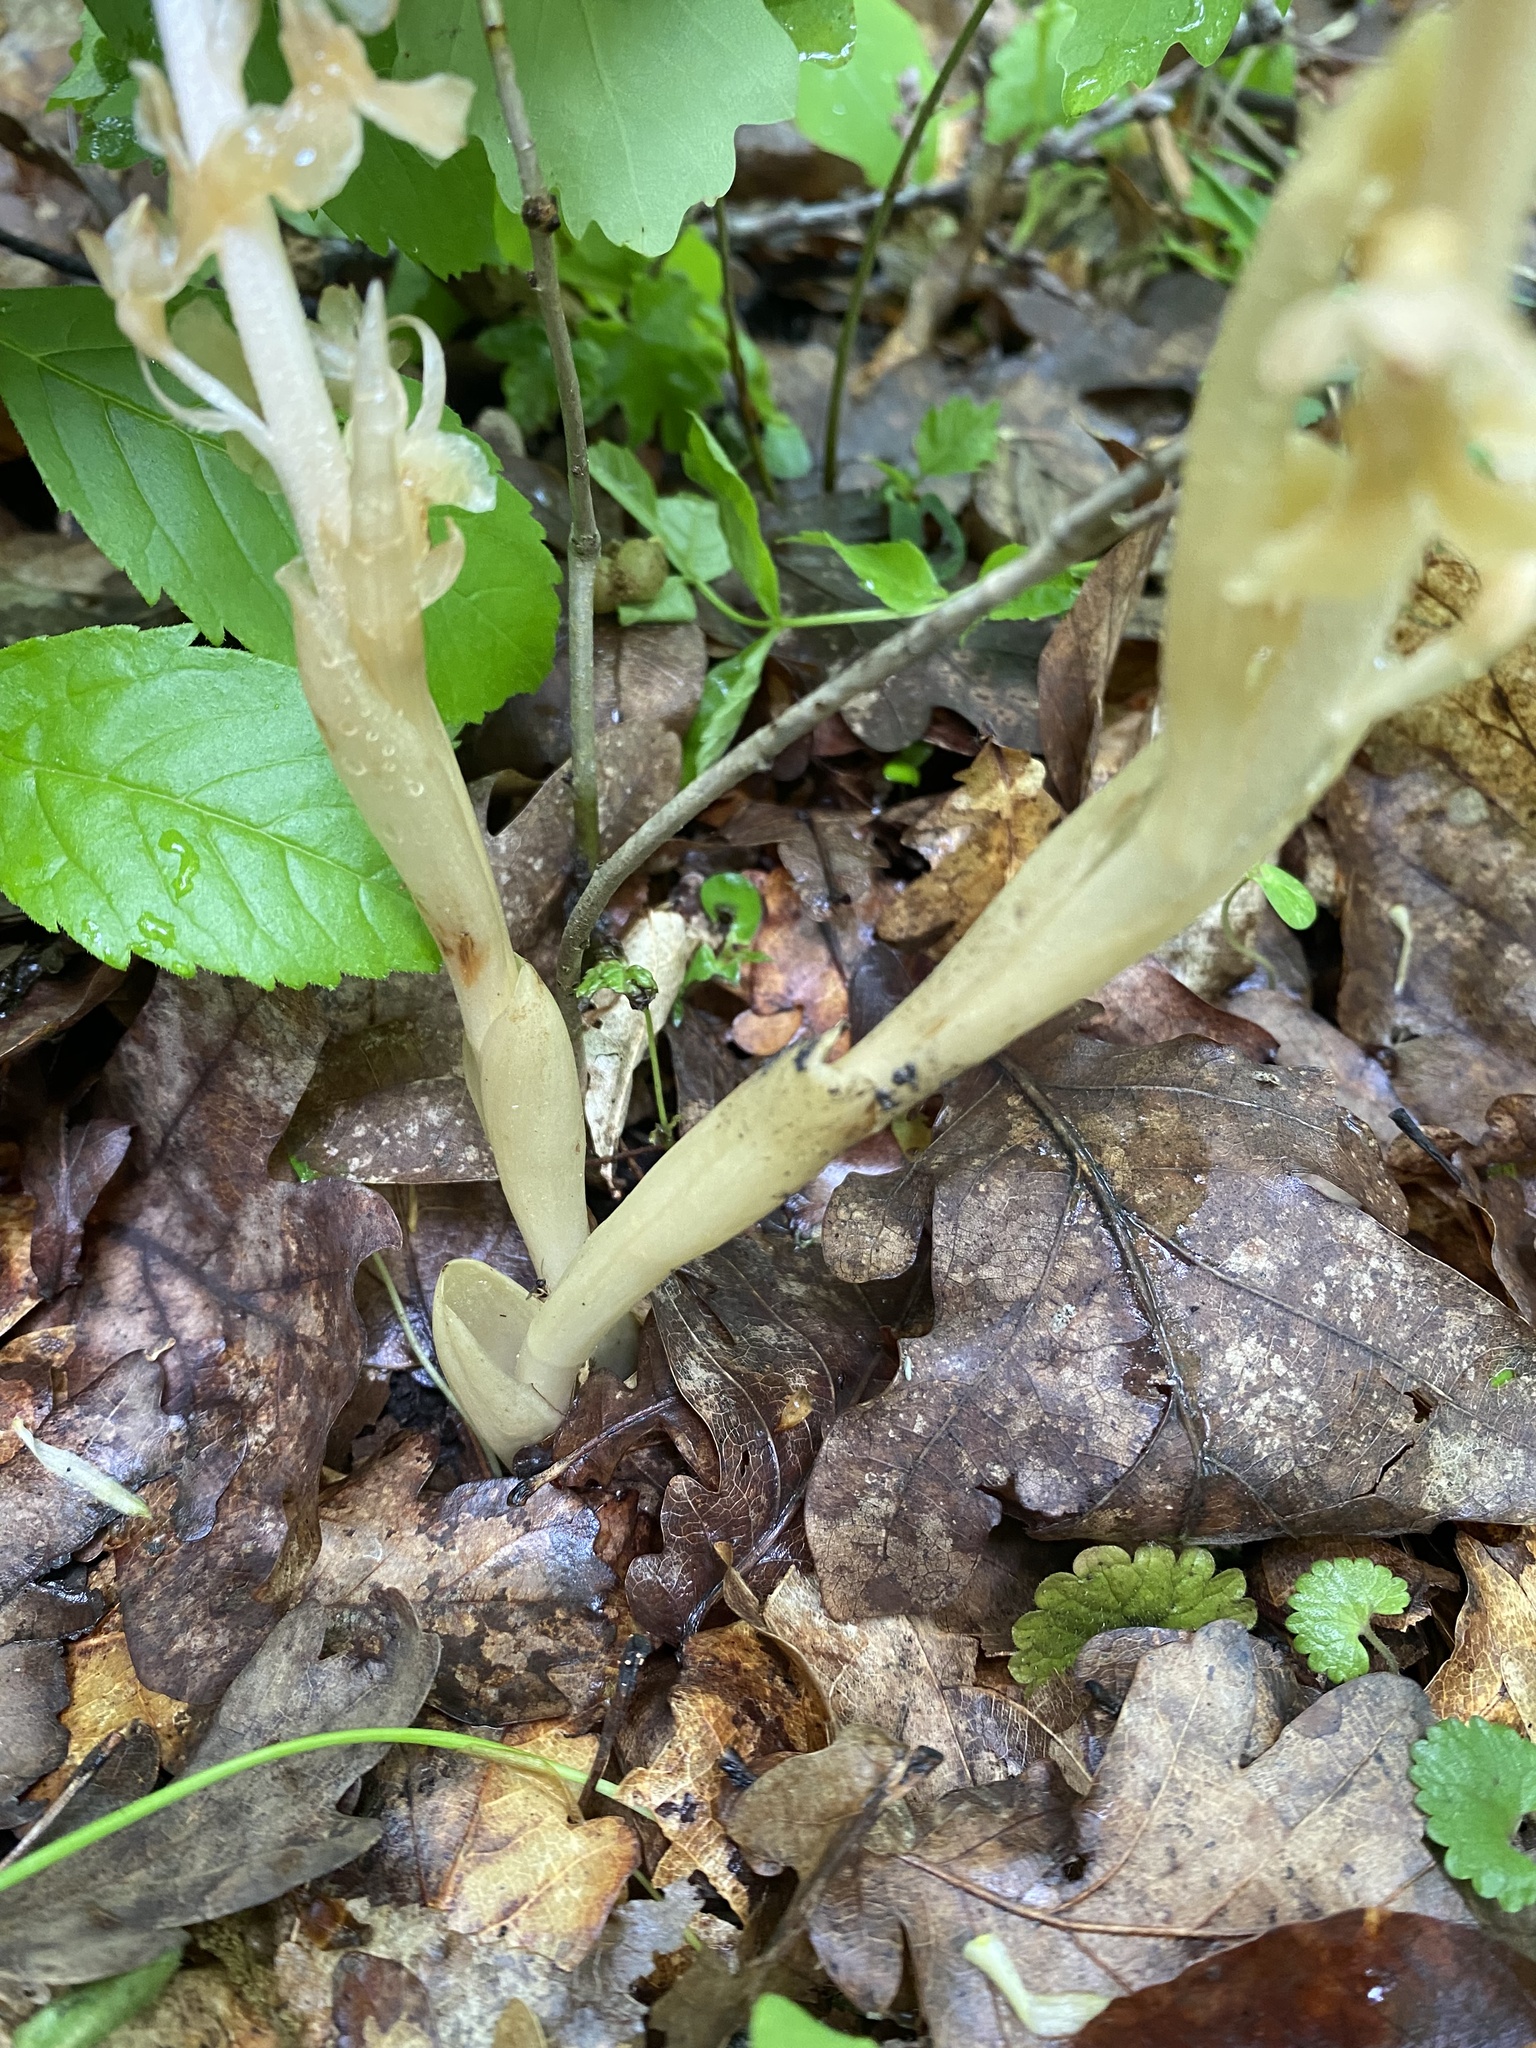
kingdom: Plantae
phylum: Tracheophyta
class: Liliopsida
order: Asparagales
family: Orchidaceae
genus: Neottia
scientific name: Neottia nidus-avis
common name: Bird's-nest orchid
